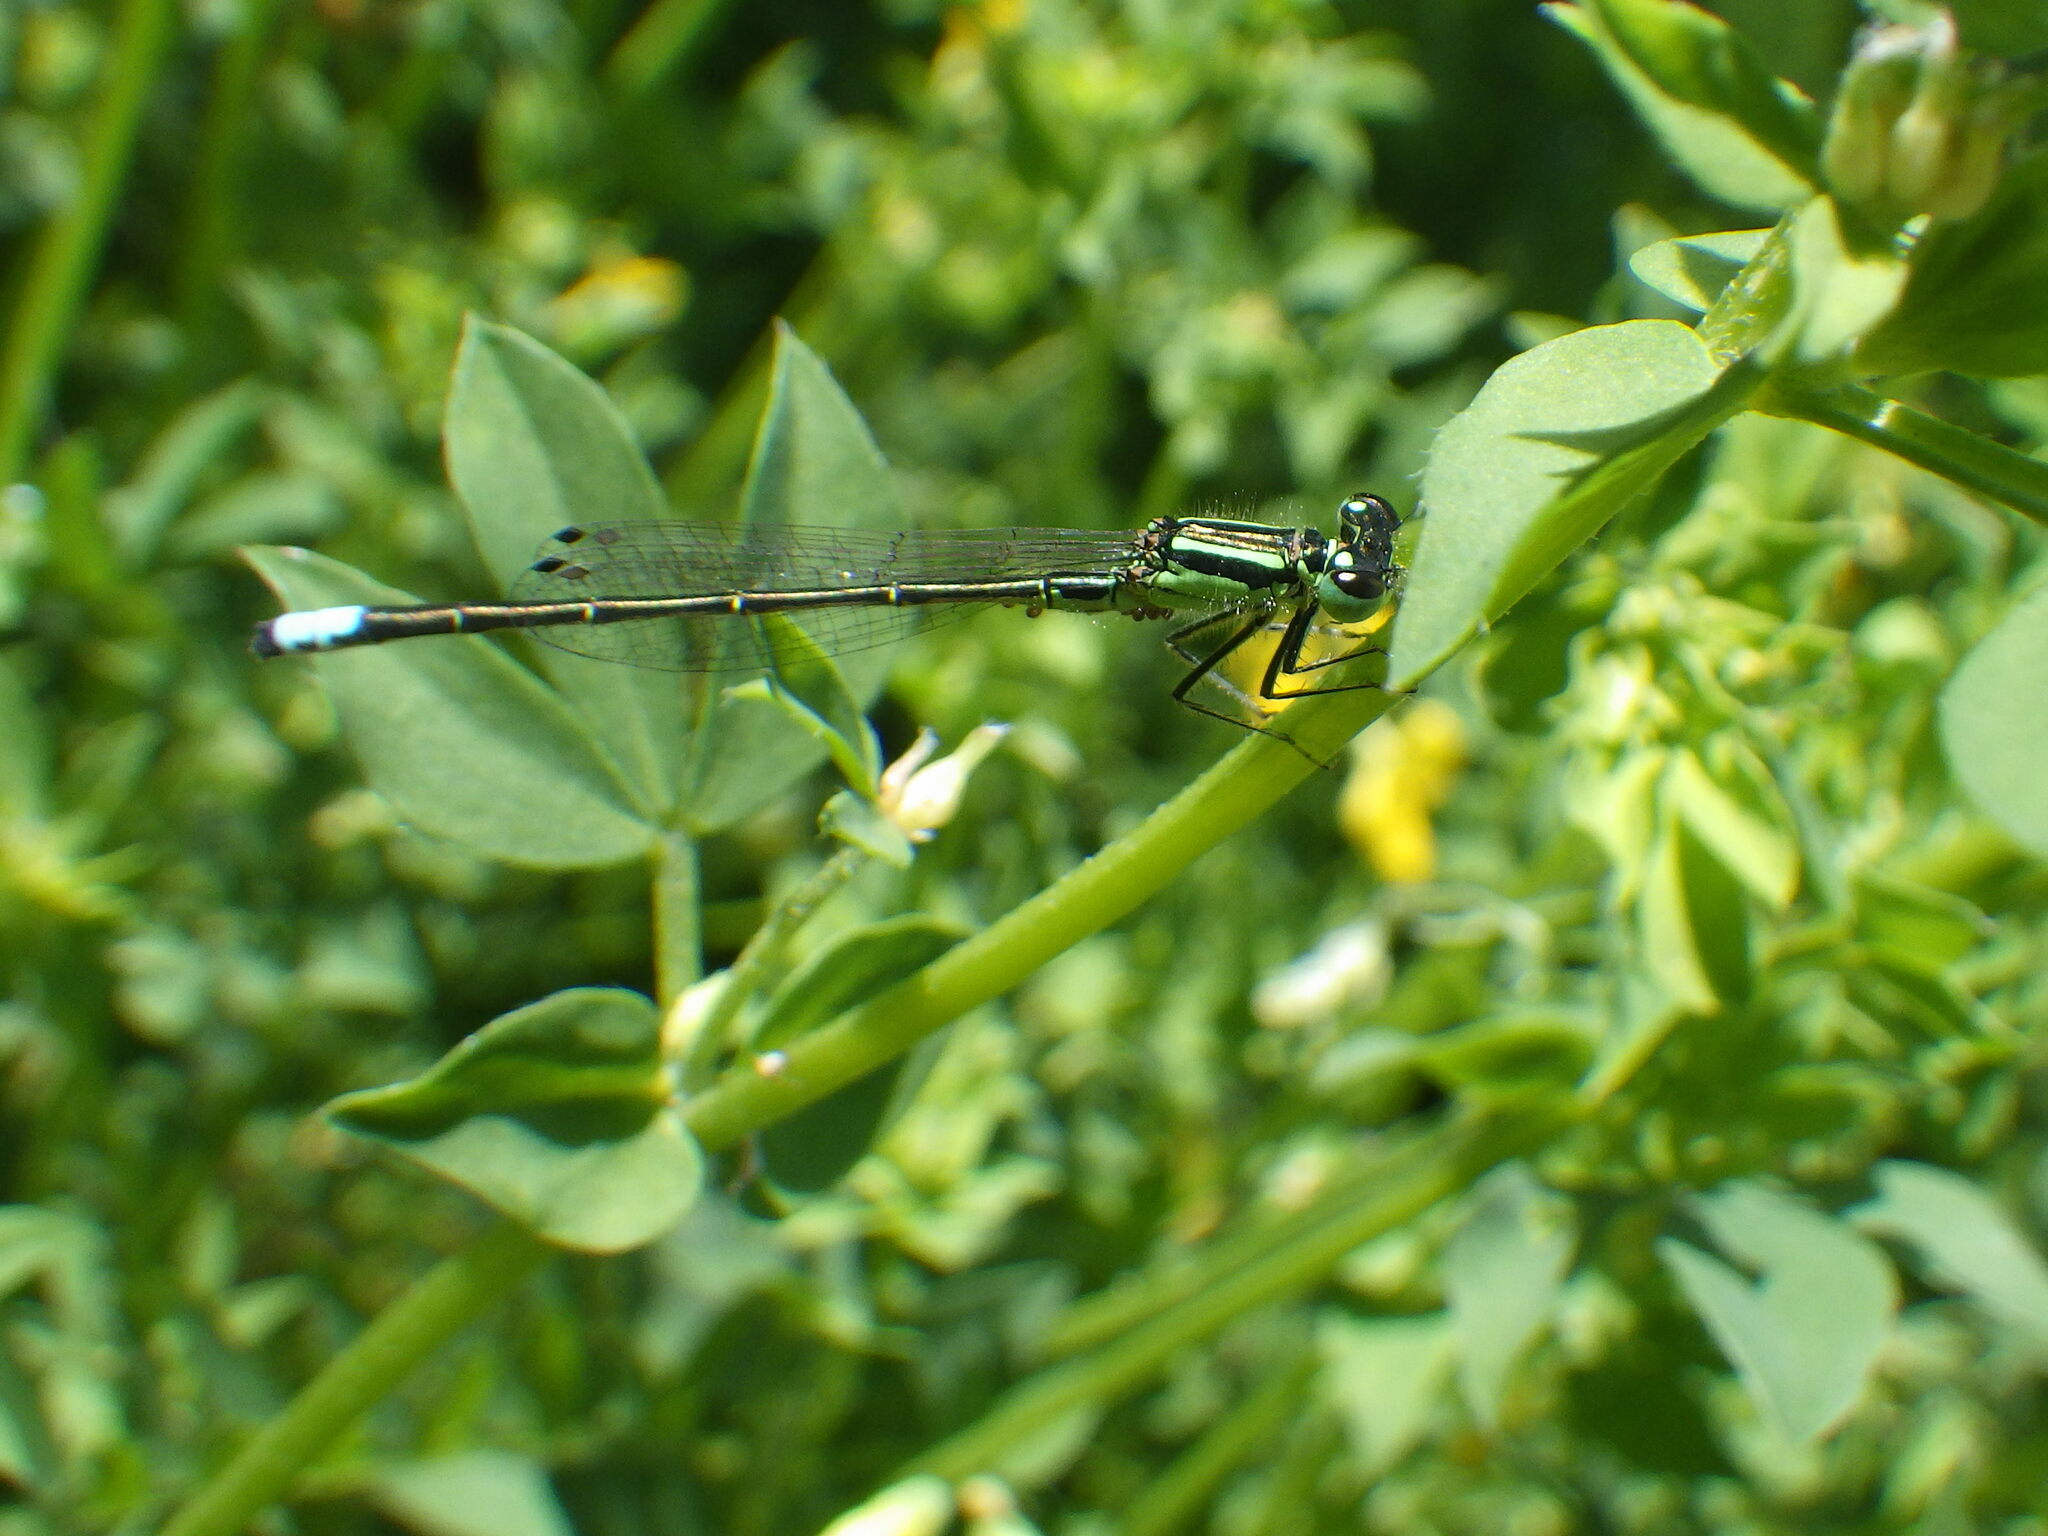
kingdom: Animalia
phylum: Arthropoda
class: Insecta
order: Odonata
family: Coenagrionidae
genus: Ischnura
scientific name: Ischnura verticalis
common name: Eastern forktail
